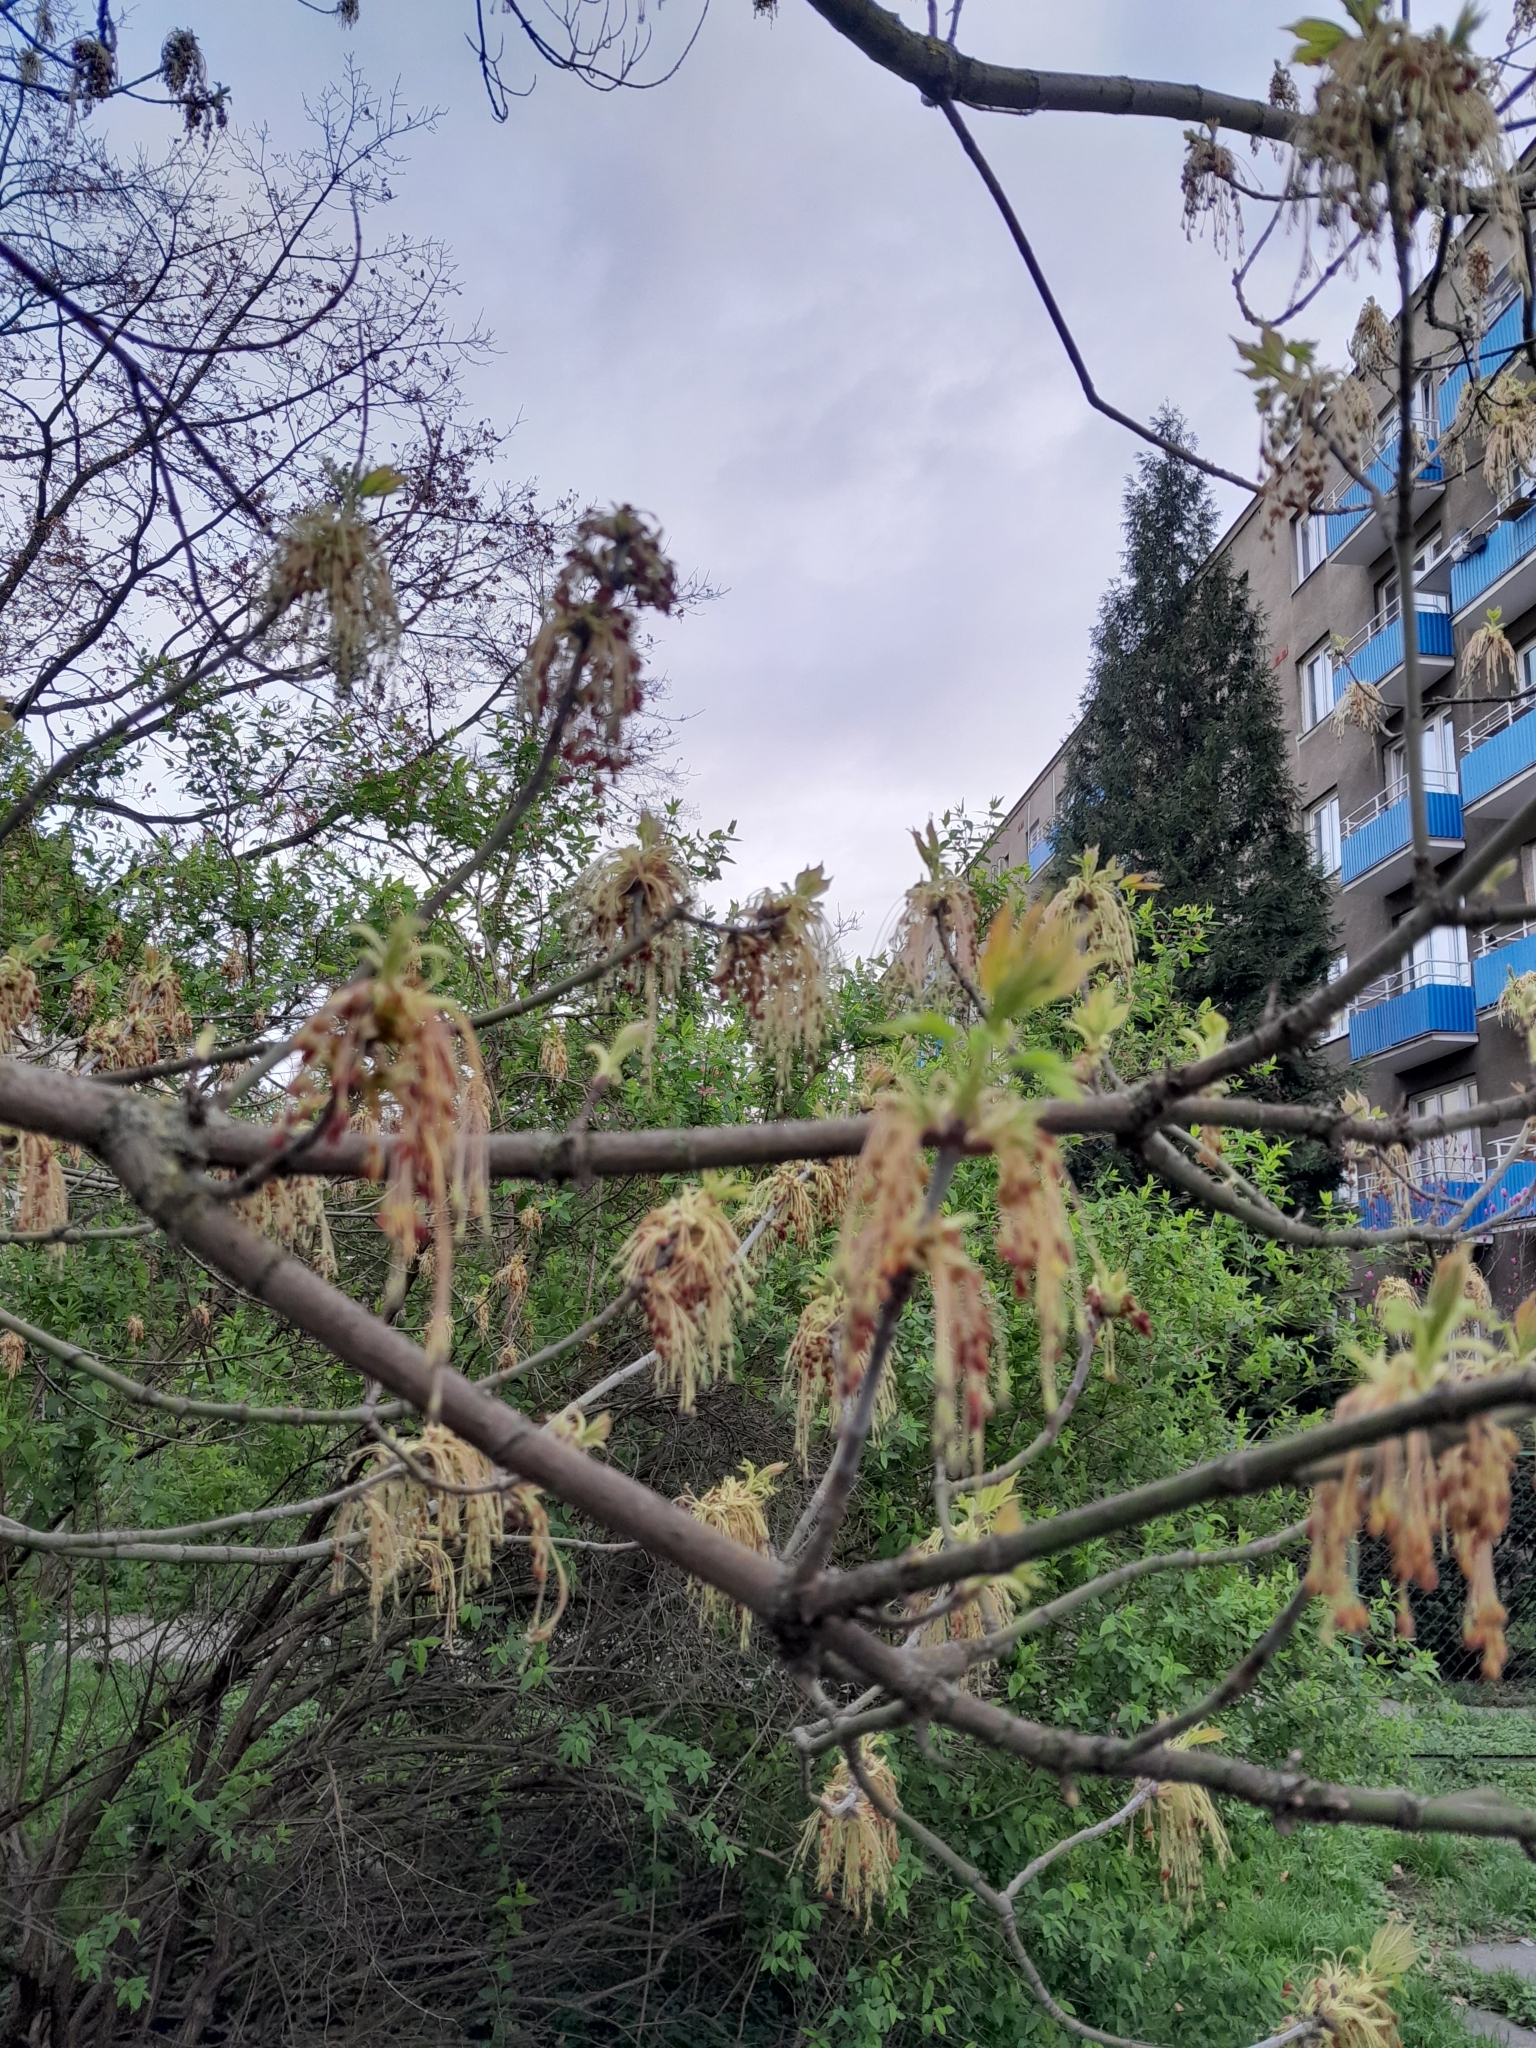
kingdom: Plantae
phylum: Tracheophyta
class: Magnoliopsida
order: Sapindales
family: Sapindaceae
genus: Acer
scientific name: Acer negundo
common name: Ashleaf maple
